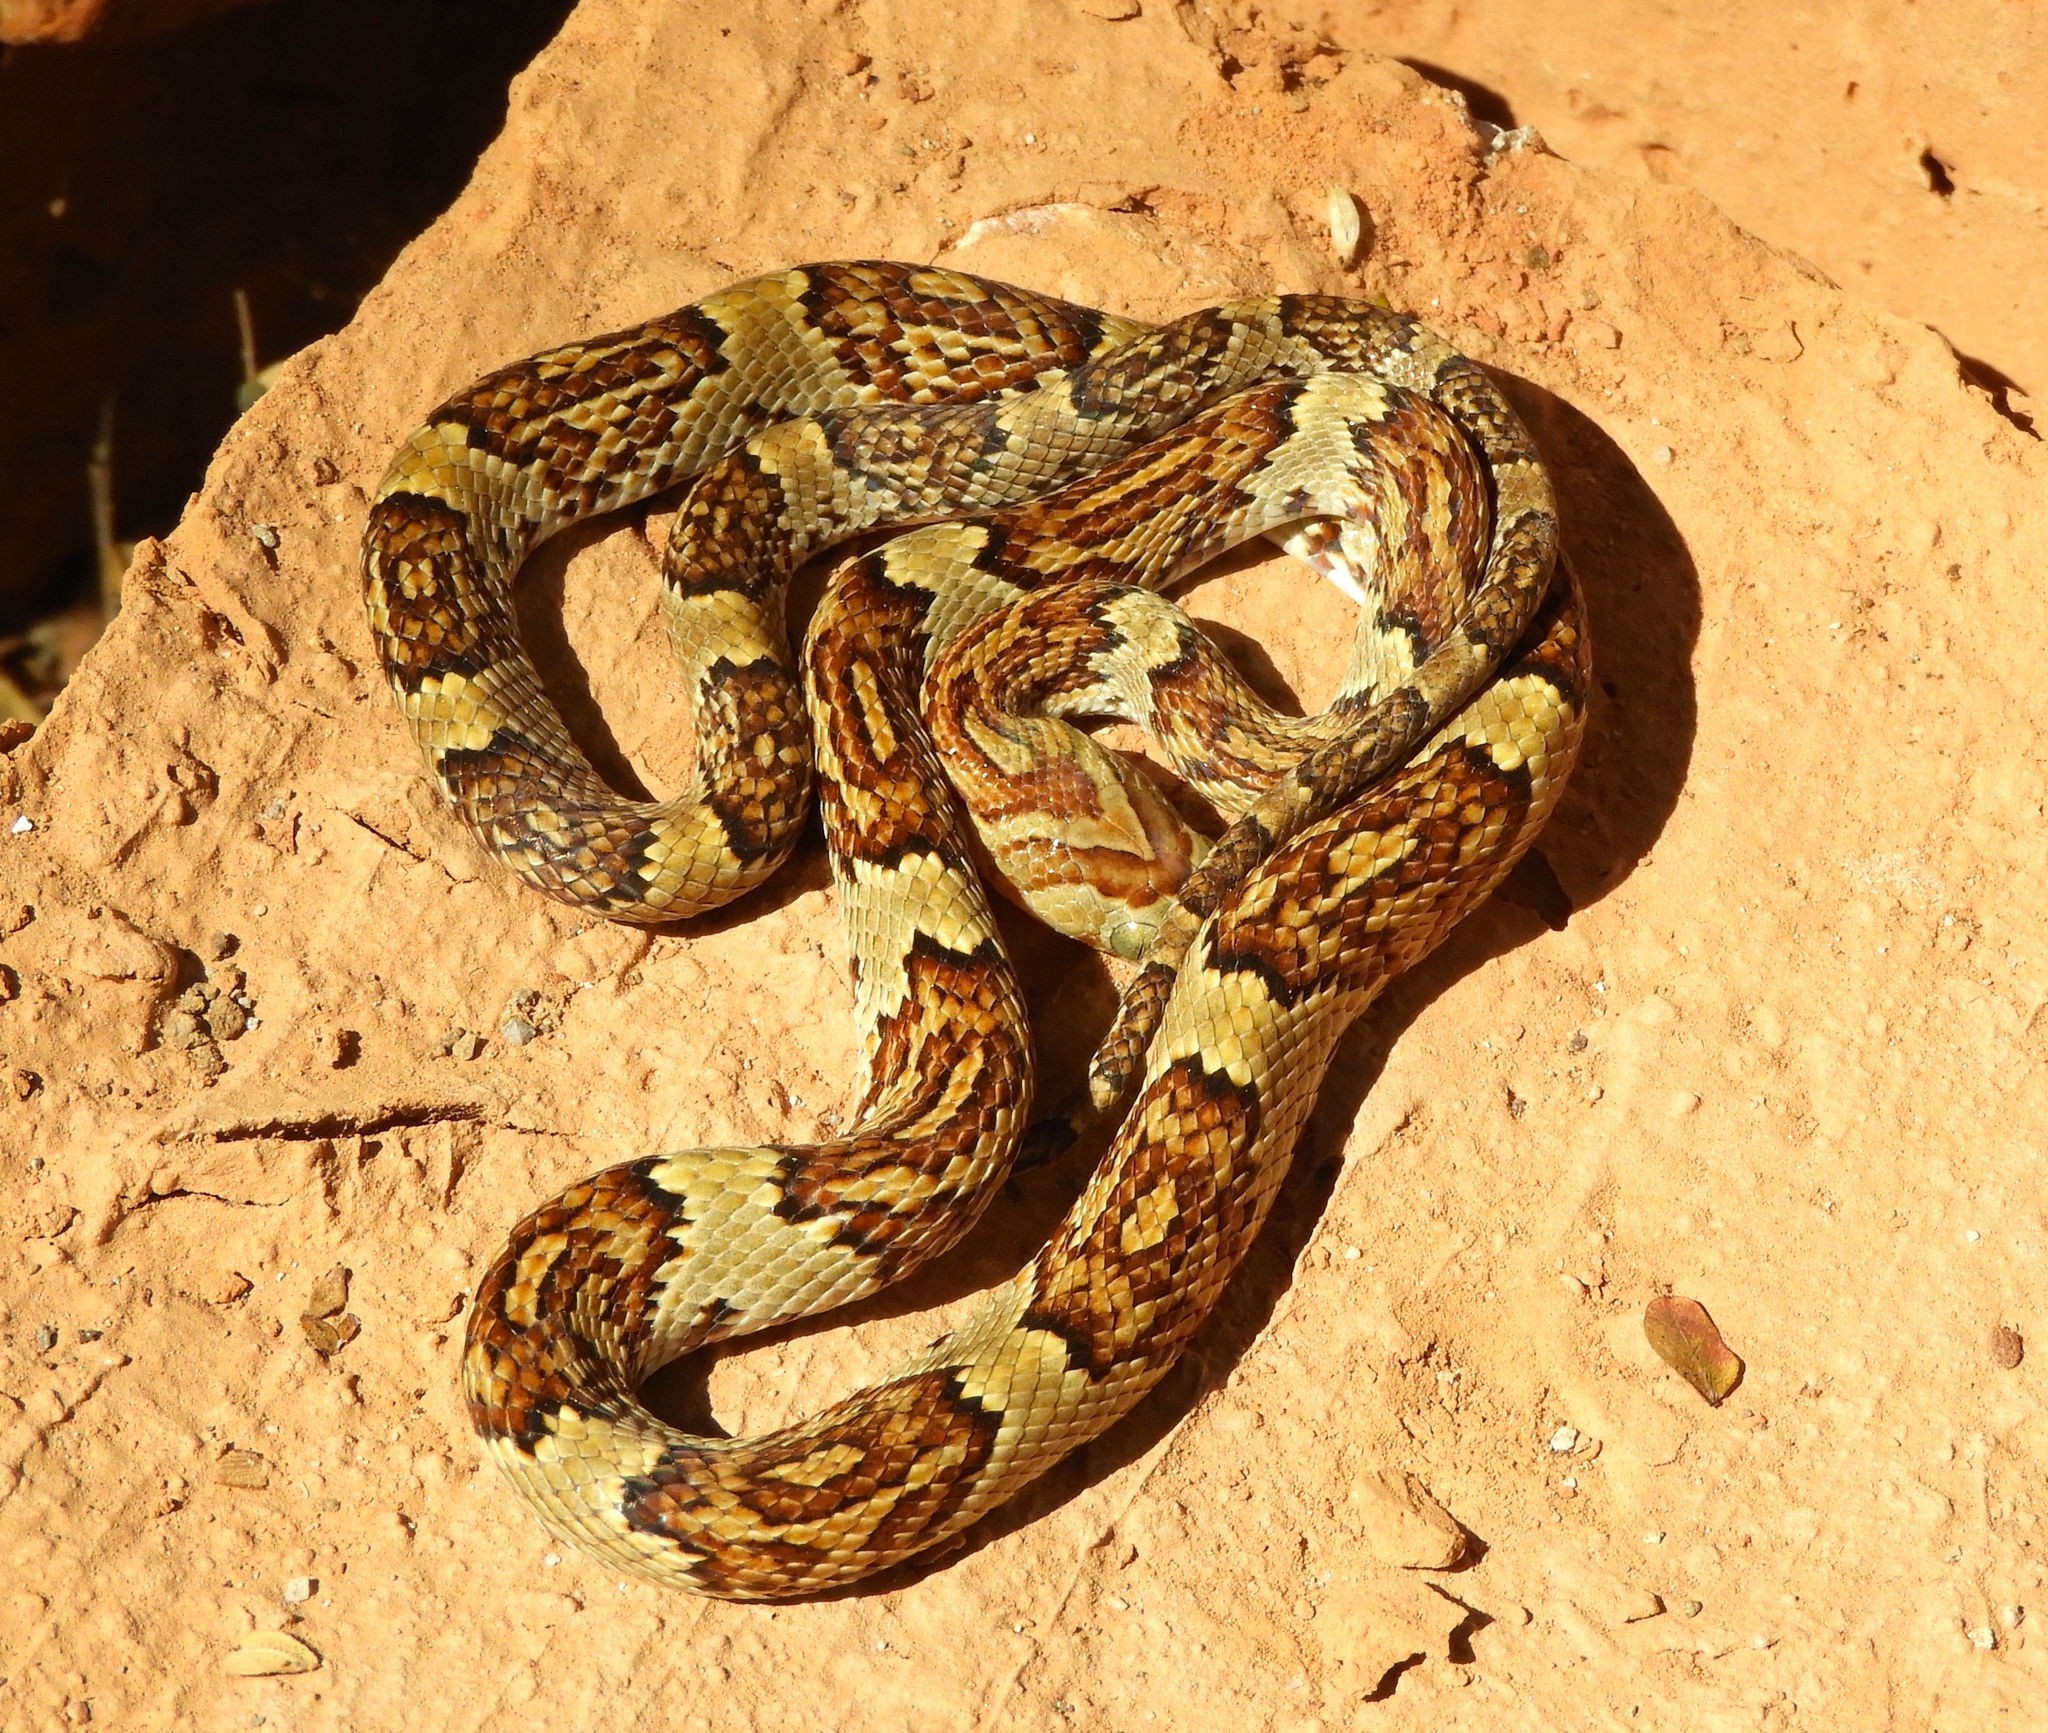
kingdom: Animalia
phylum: Chordata
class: Squamata
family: Colubridae
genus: Trimorphodon
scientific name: Trimorphodon paucimaculatus
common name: Sinaloan lyresnake
